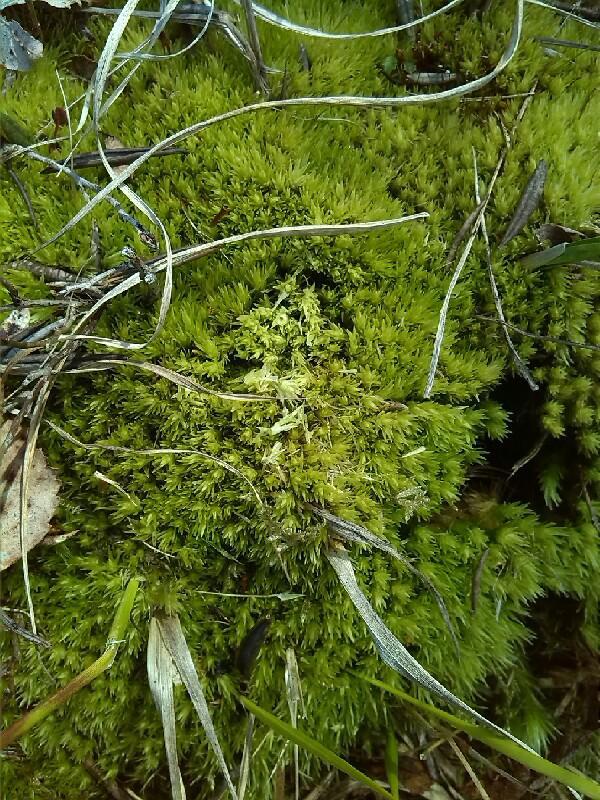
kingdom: Plantae
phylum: Bryophyta
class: Bryopsida
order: Dicranales
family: Leucobryaceae
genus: Leucobryum
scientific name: Leucobryum glaucum
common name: Large white-moss
